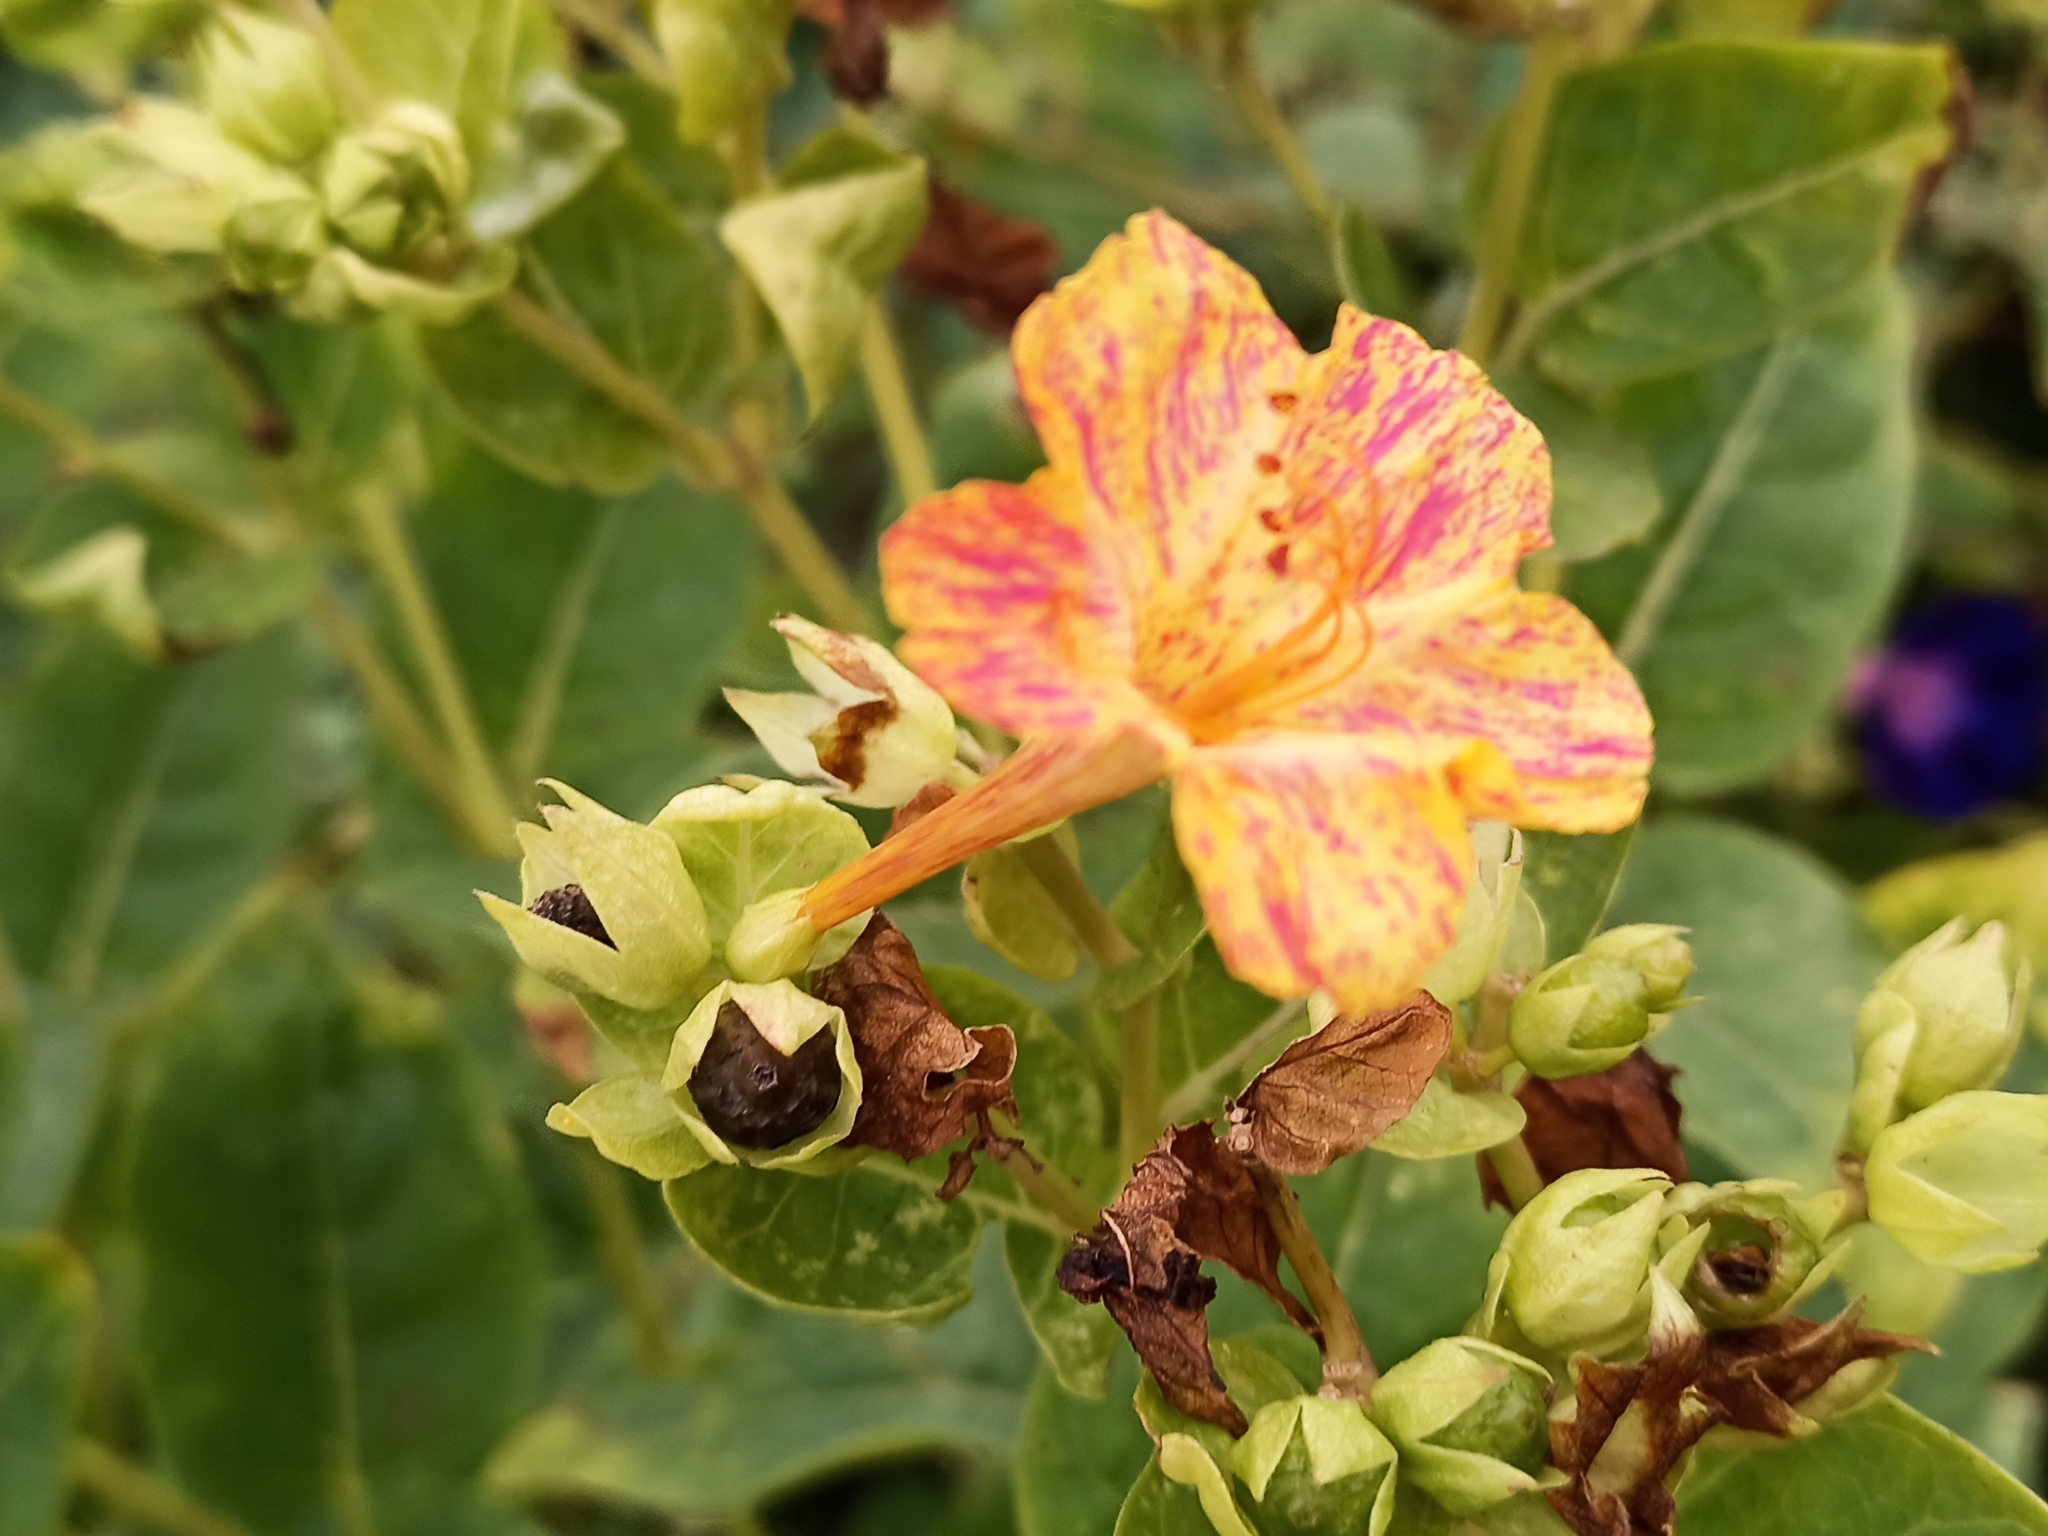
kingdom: Plantae
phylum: Tracheophyta
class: Magnoliopsida
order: Caryophyllales
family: Nyctaginaceae
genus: Mirabilis
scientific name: Mirabilis jalapa
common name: Marvel-of-peru
